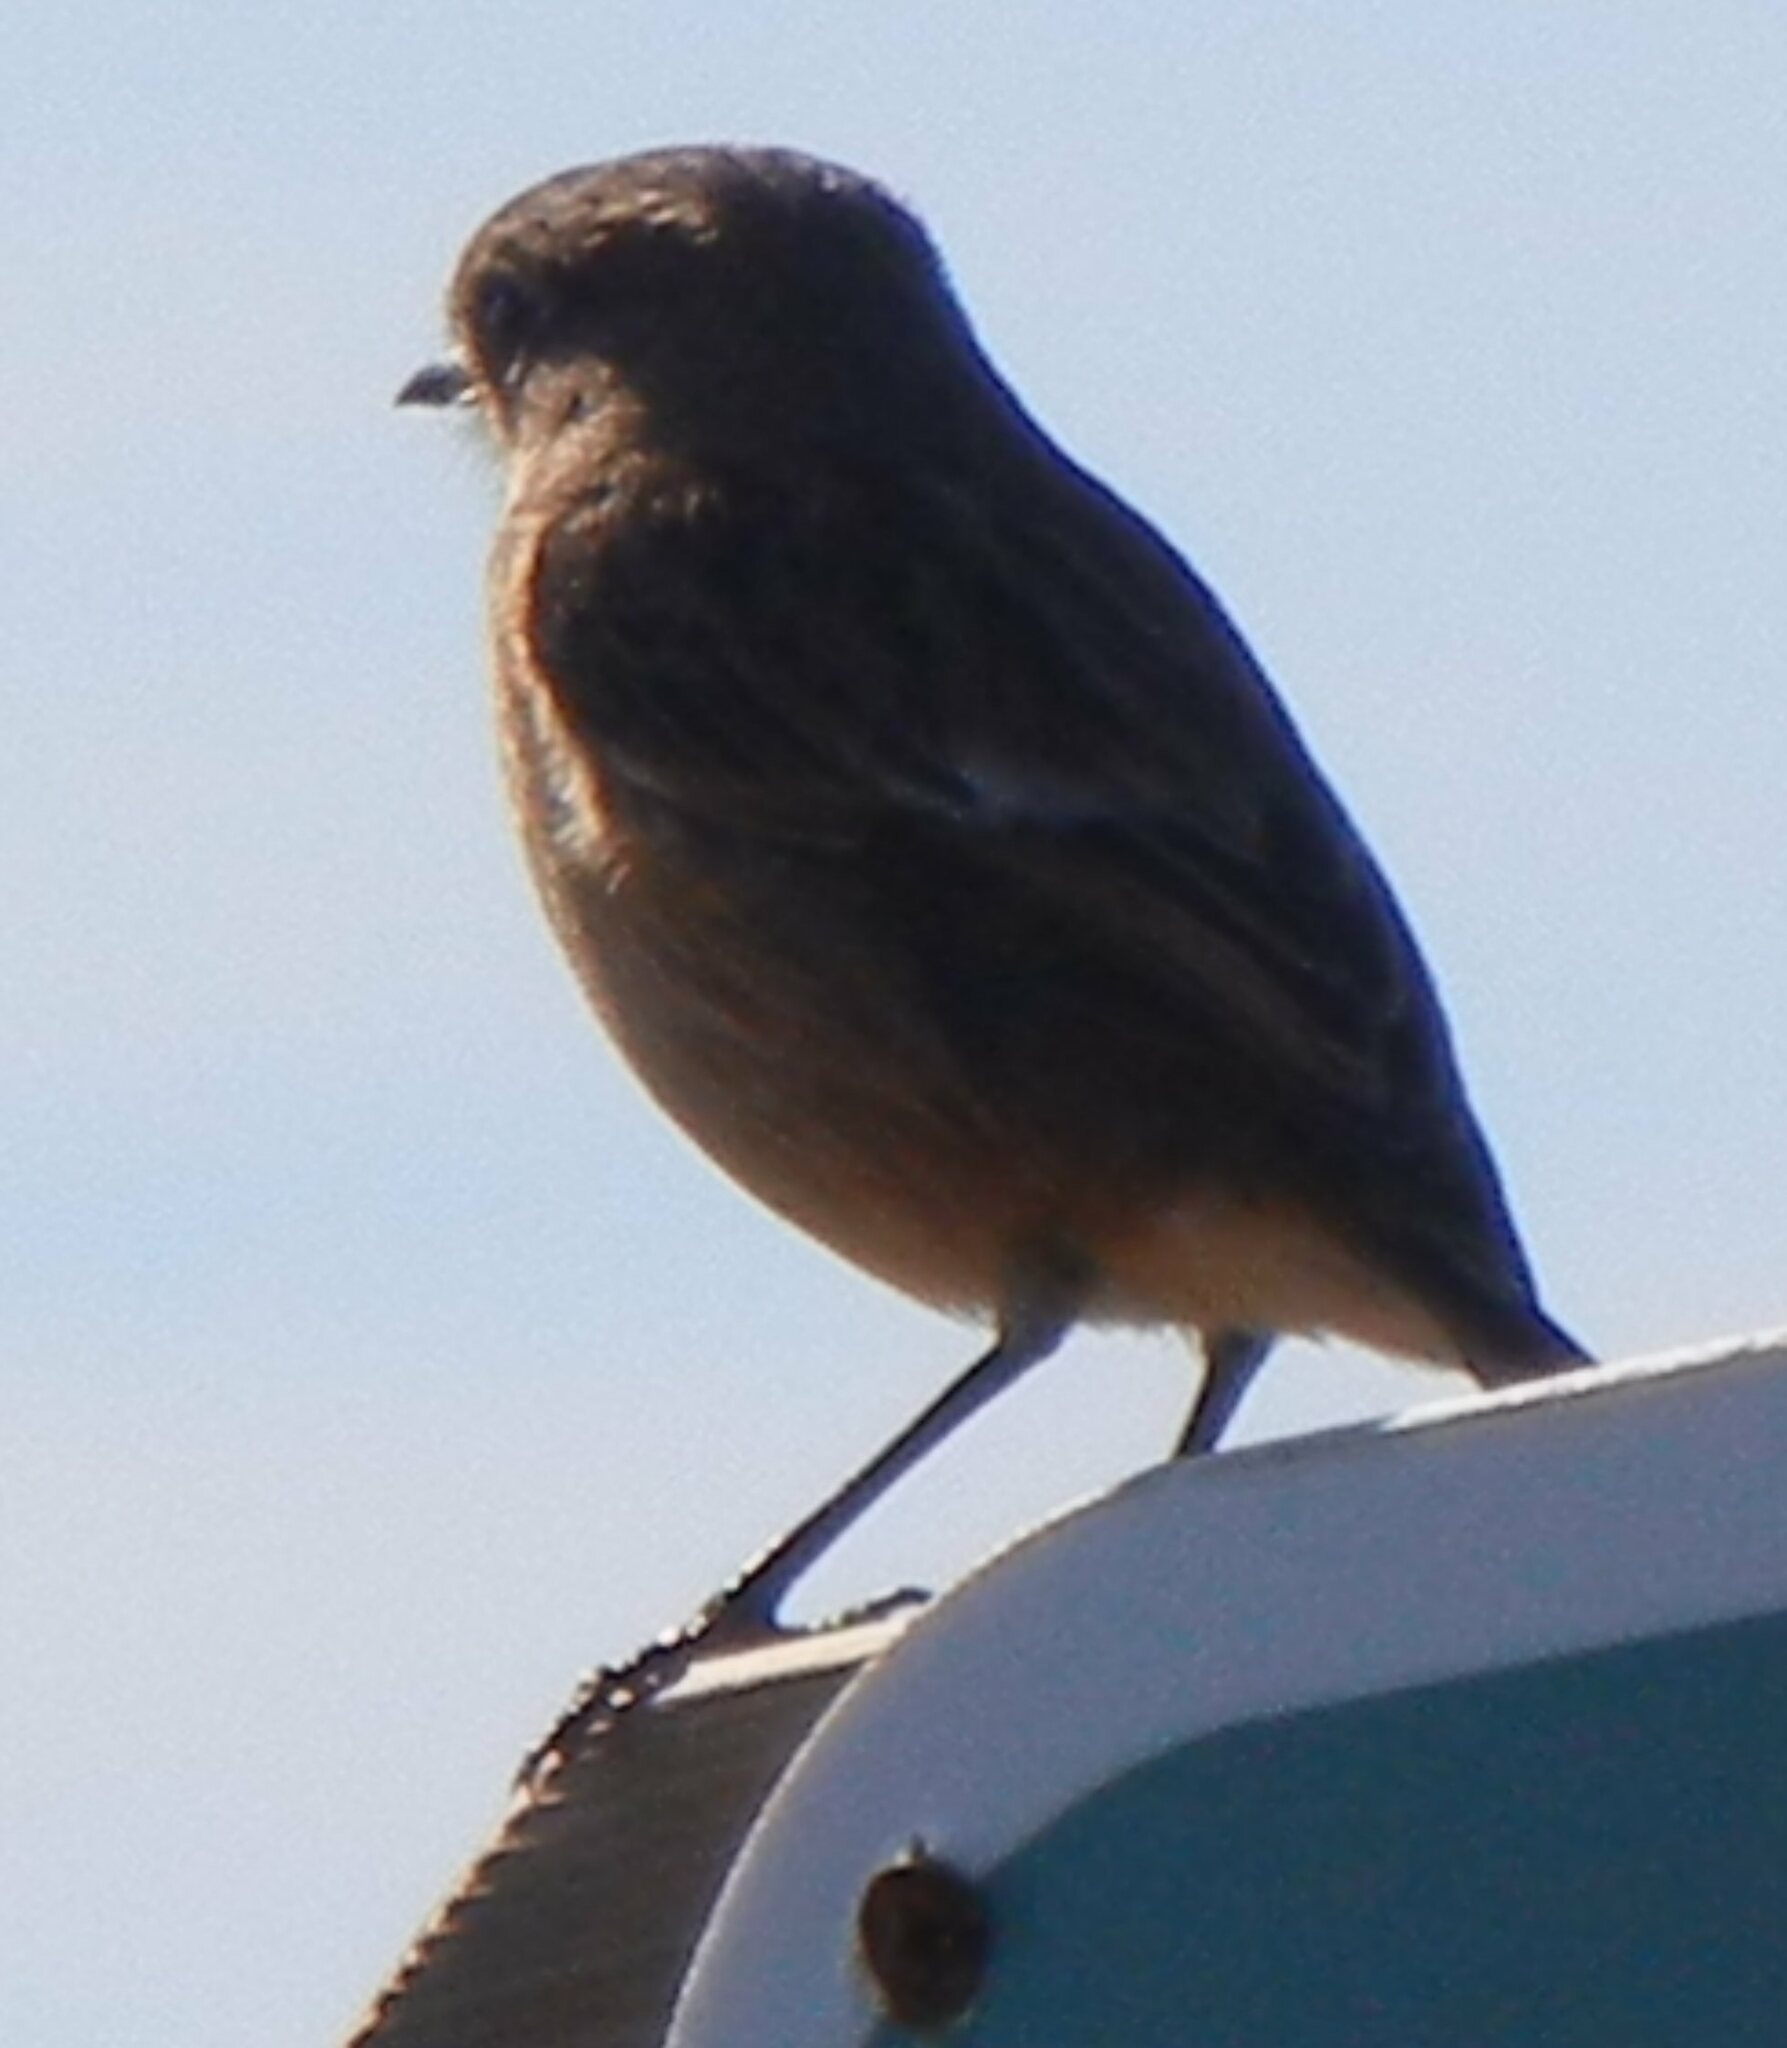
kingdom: Animalia
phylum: Chordata
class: Aves
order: Passeriformes
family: Muscicapidae
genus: Saxicola
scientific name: Saxicola rubicola
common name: European stonechat
